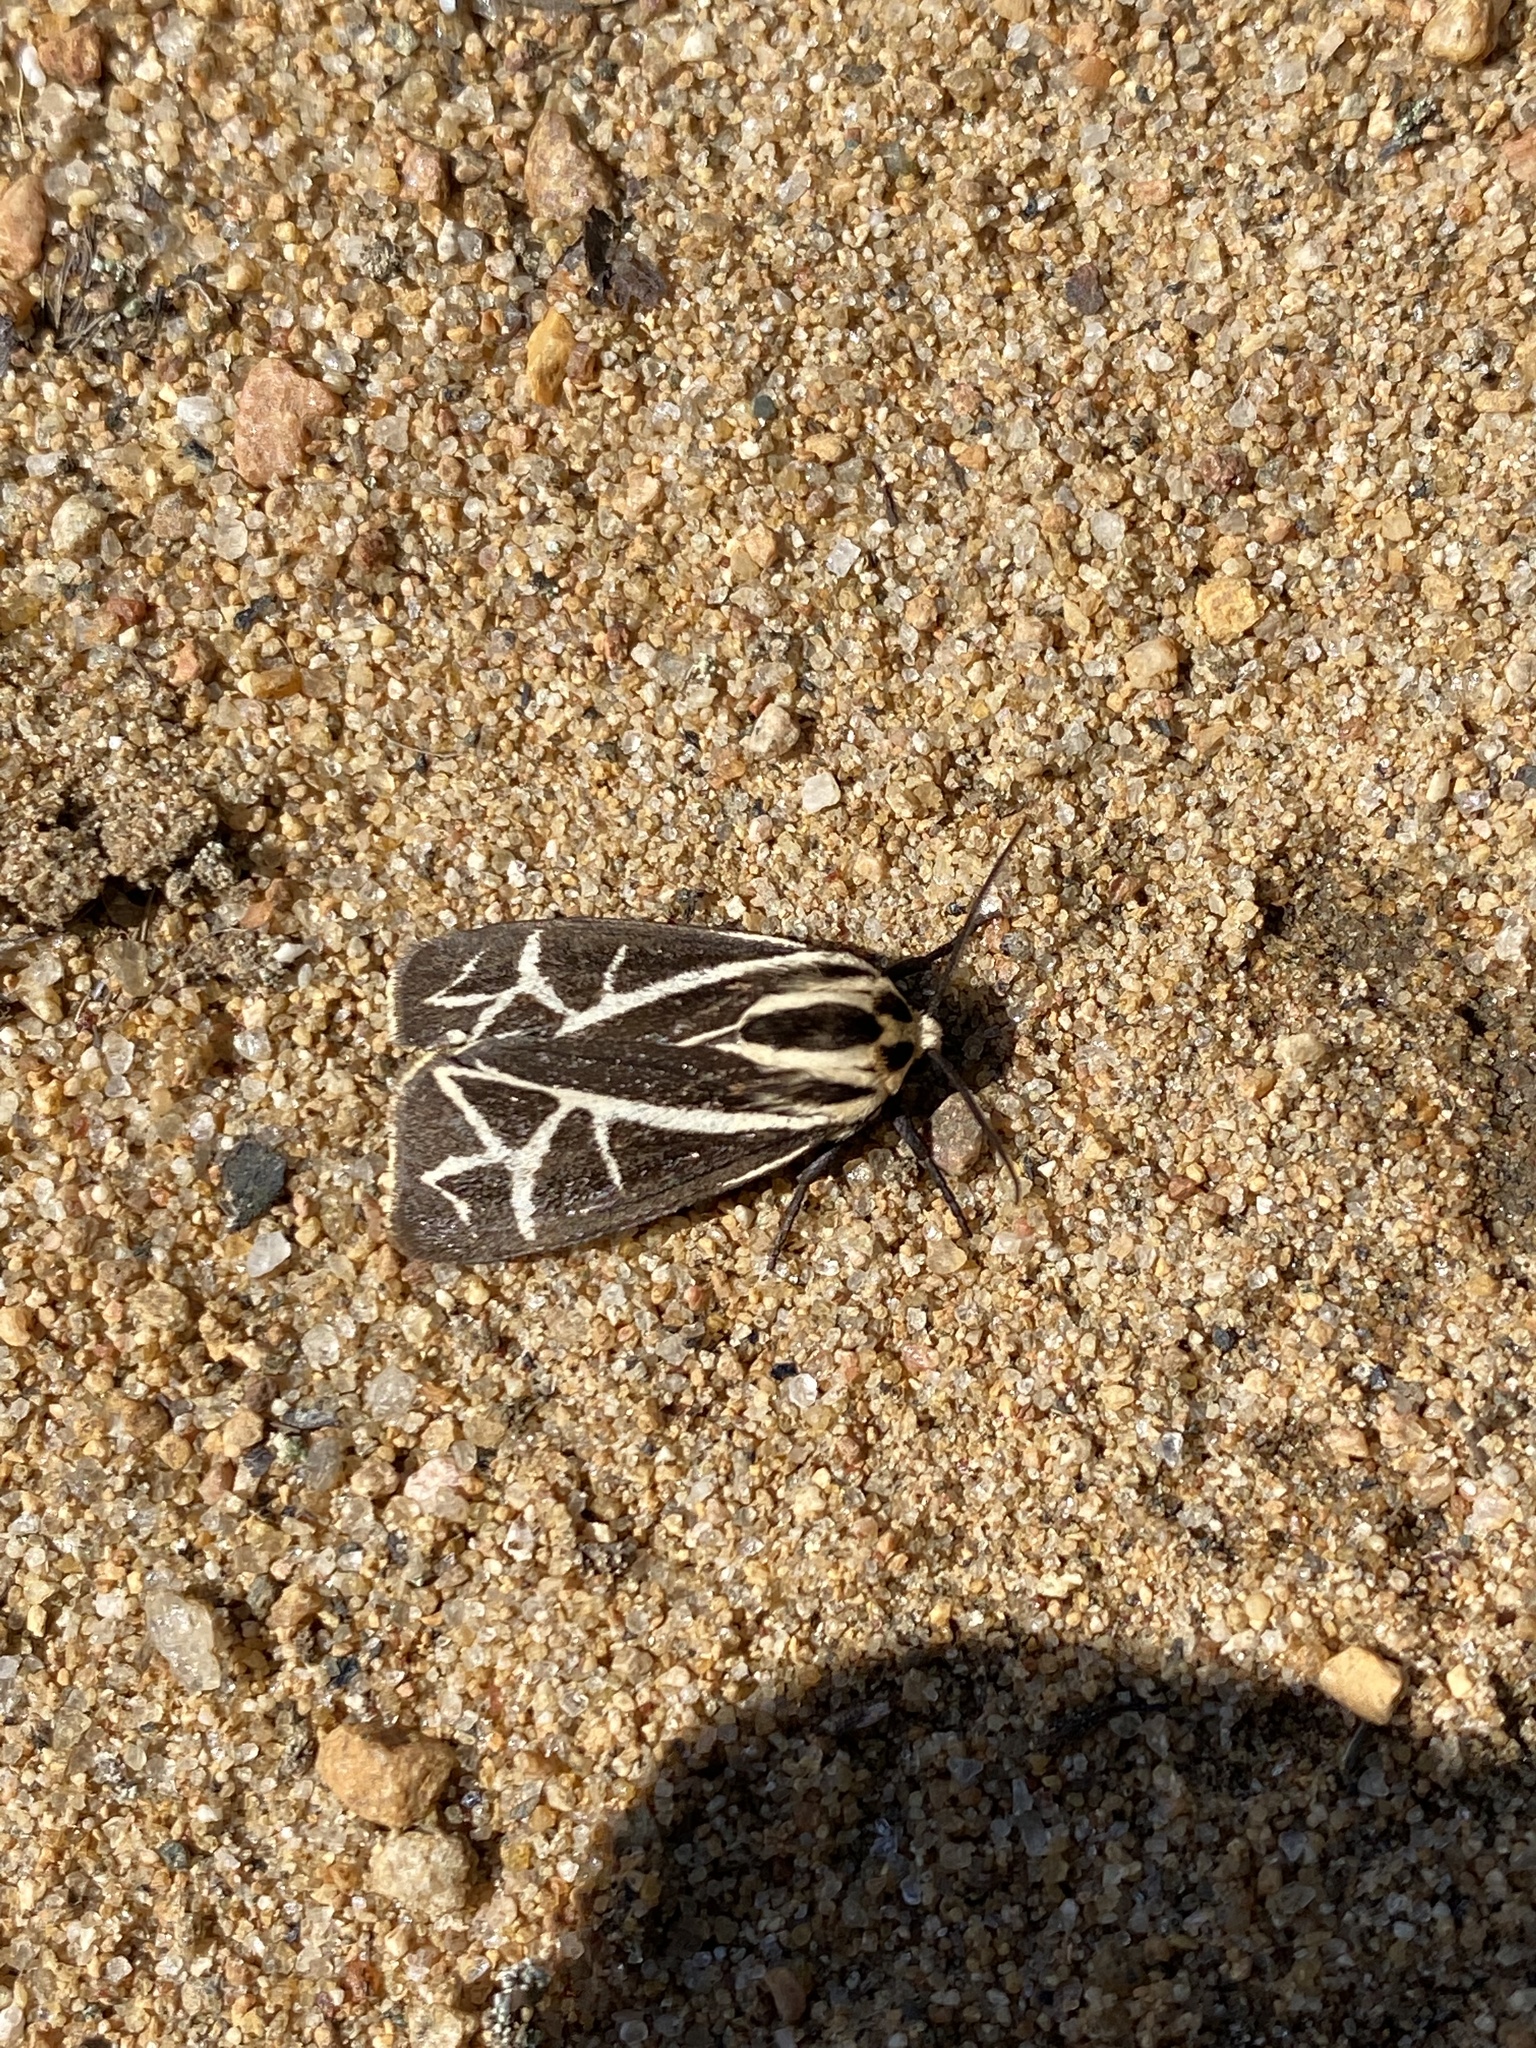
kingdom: Animalia
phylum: Arthropoda
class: Insecta
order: Lepidoptera
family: Erebidae
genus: Apantesis
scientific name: Apantesis
